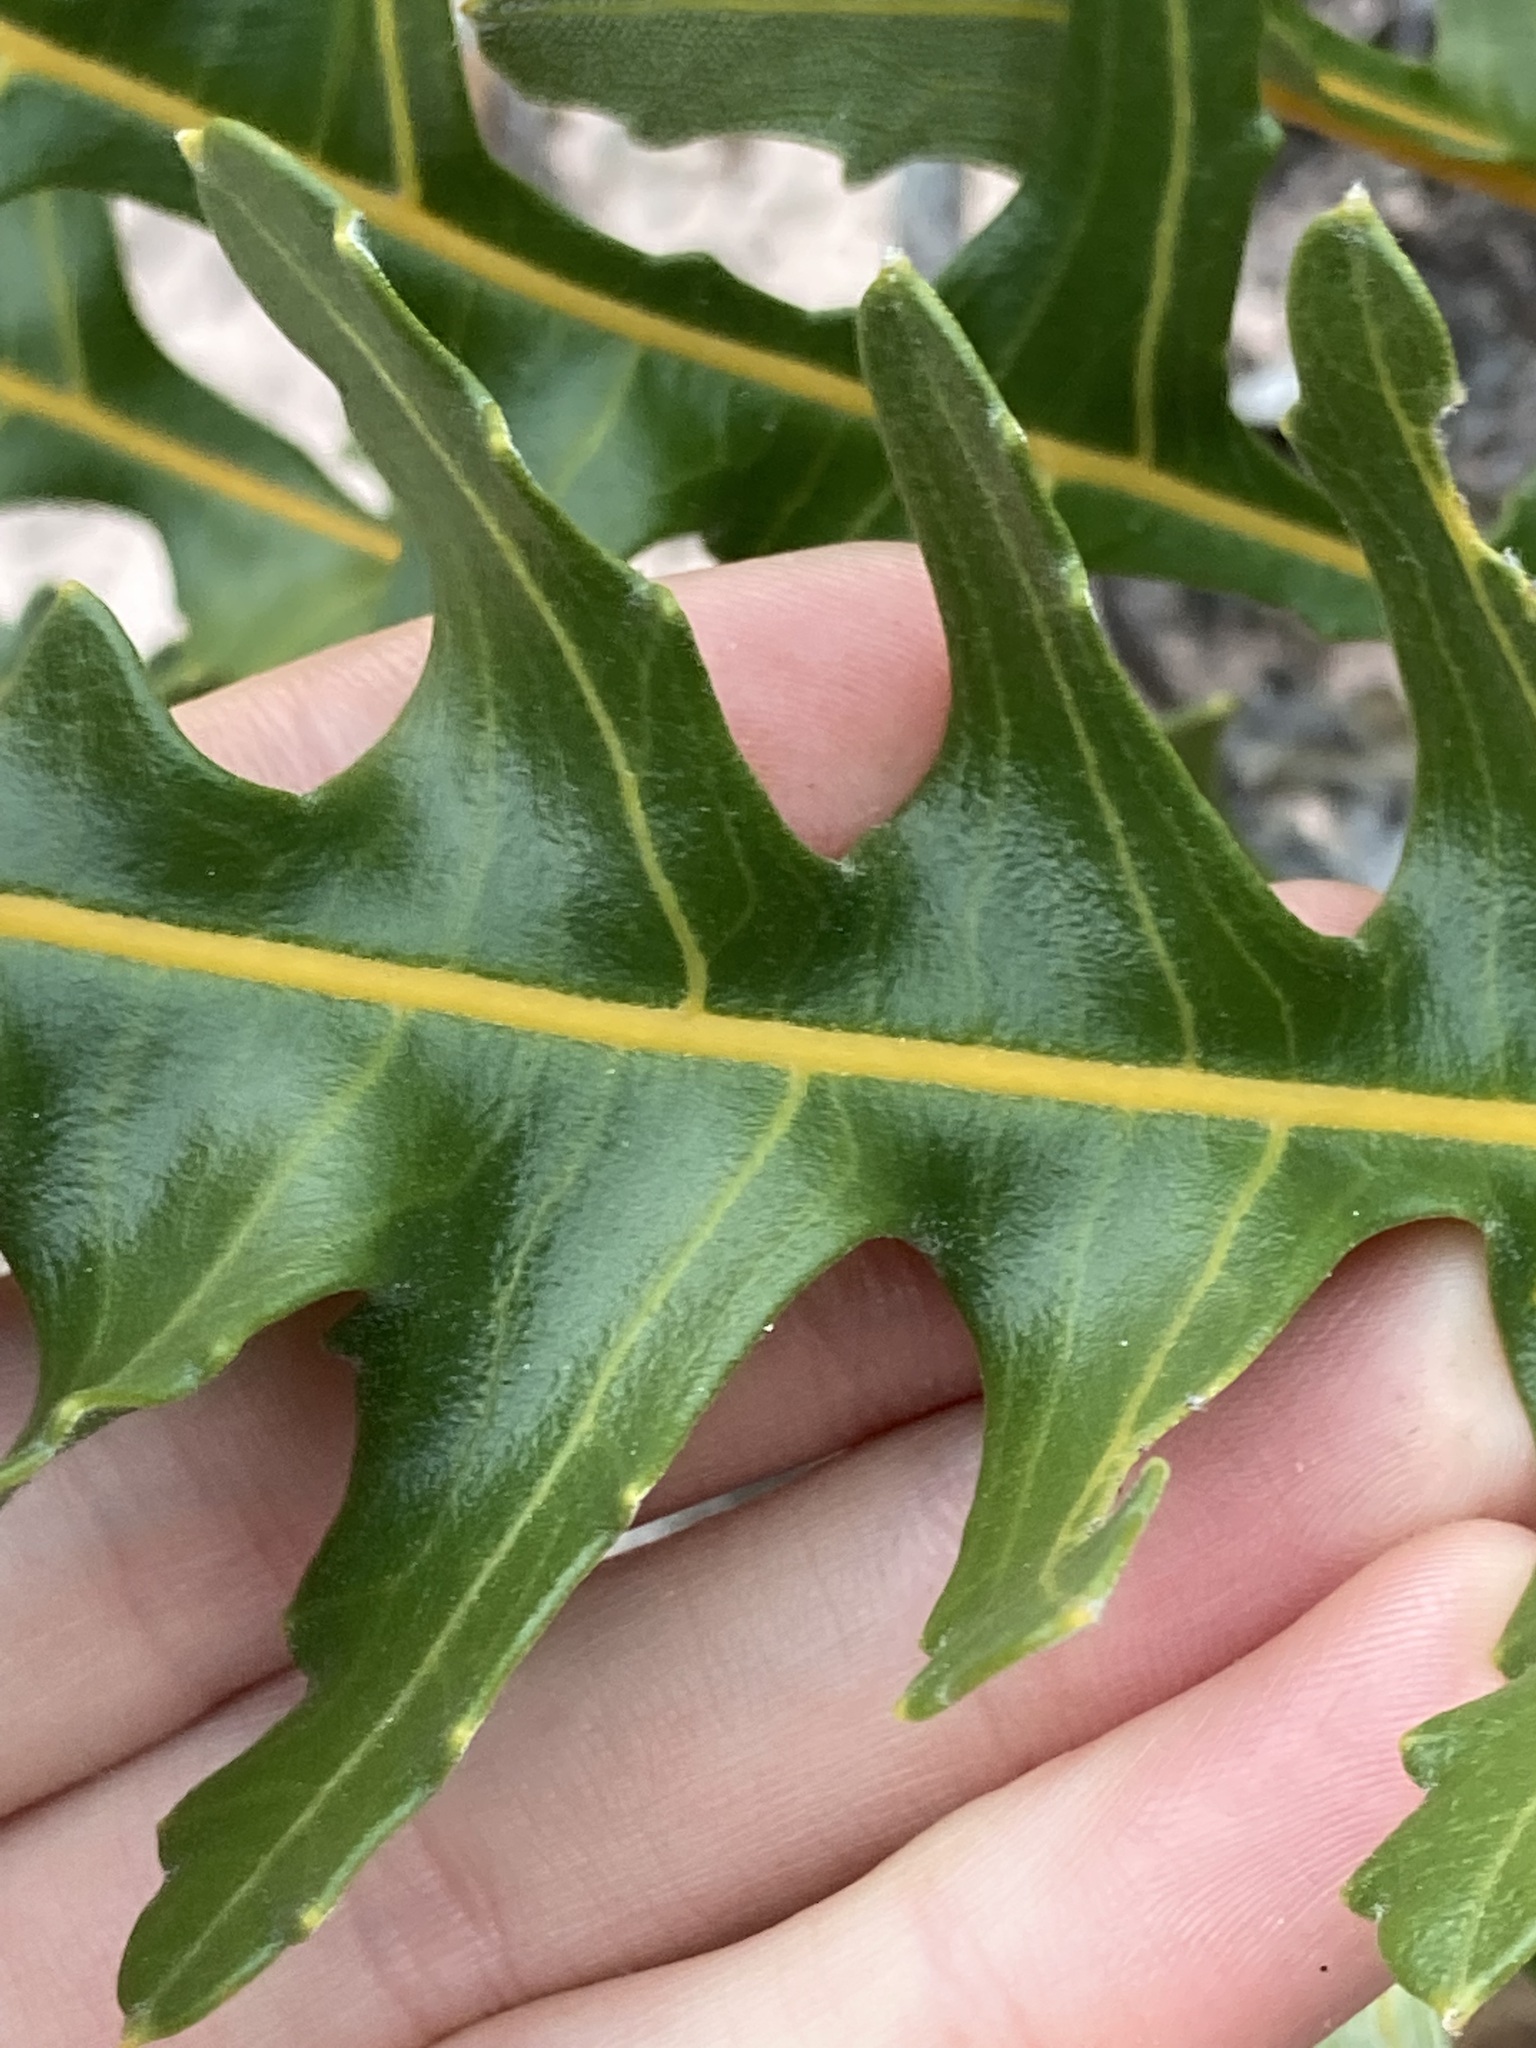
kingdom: Plantae
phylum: Tracheophyta
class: Magnoliopsida
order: Proteales
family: Proteaceae
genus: Banksia
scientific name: Banksia repens
